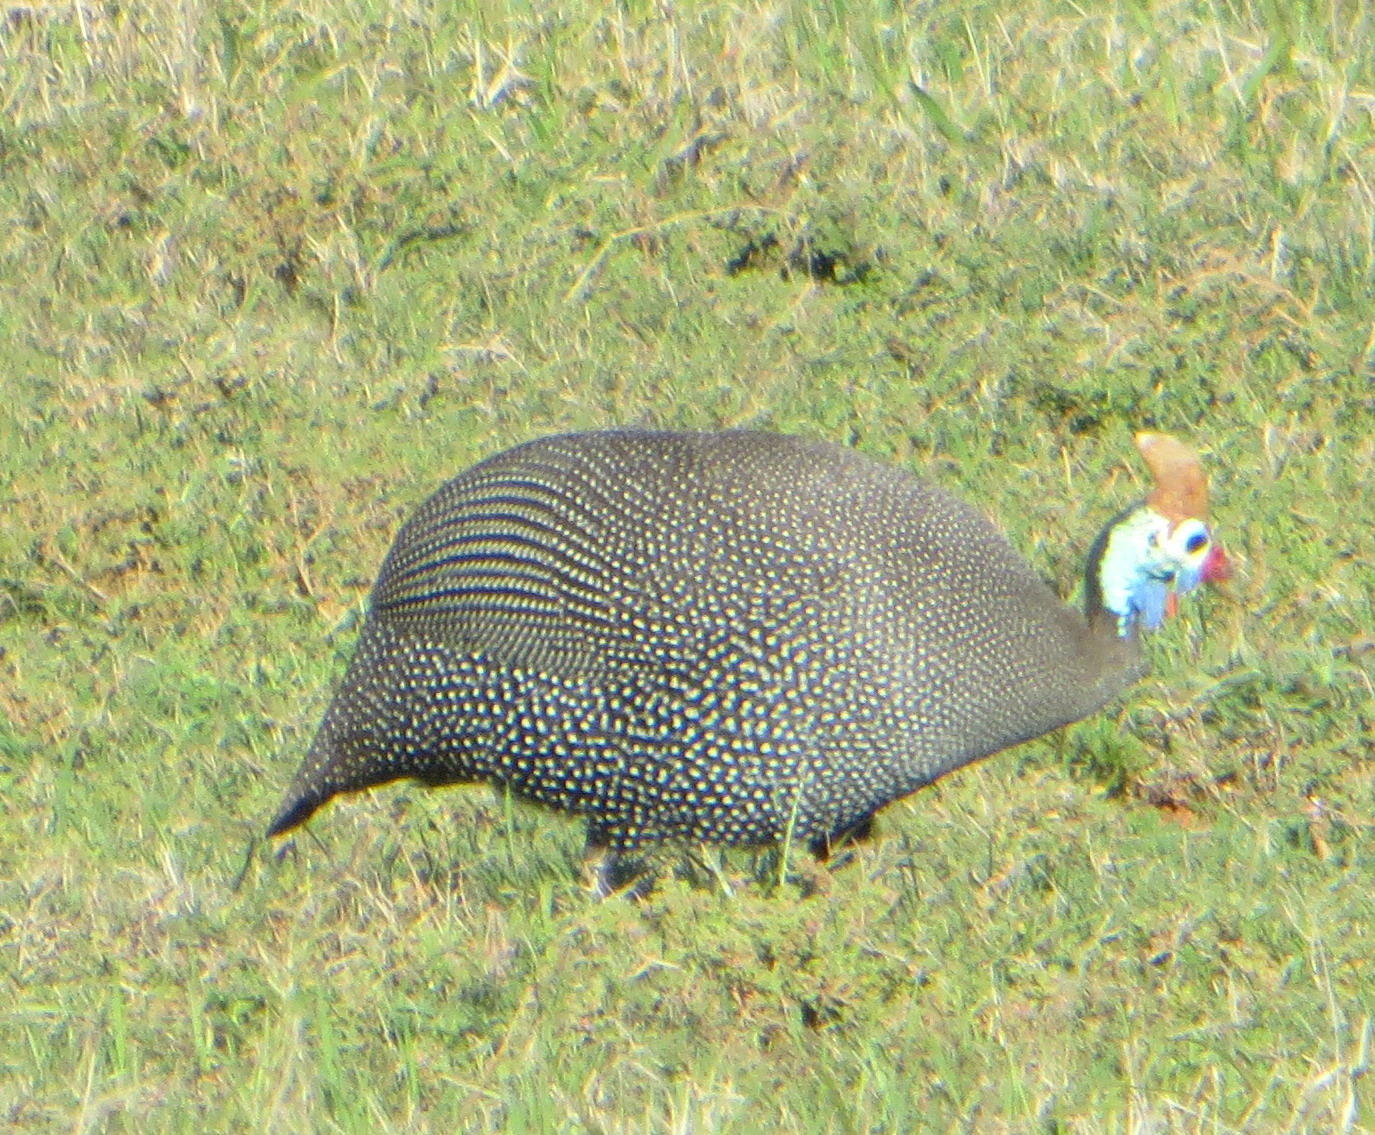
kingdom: Animalia
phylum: Chordata
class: Aves
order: Galliformes
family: Numididae
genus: Numida
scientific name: Numida meleagris
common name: Helmeted guineafowl
